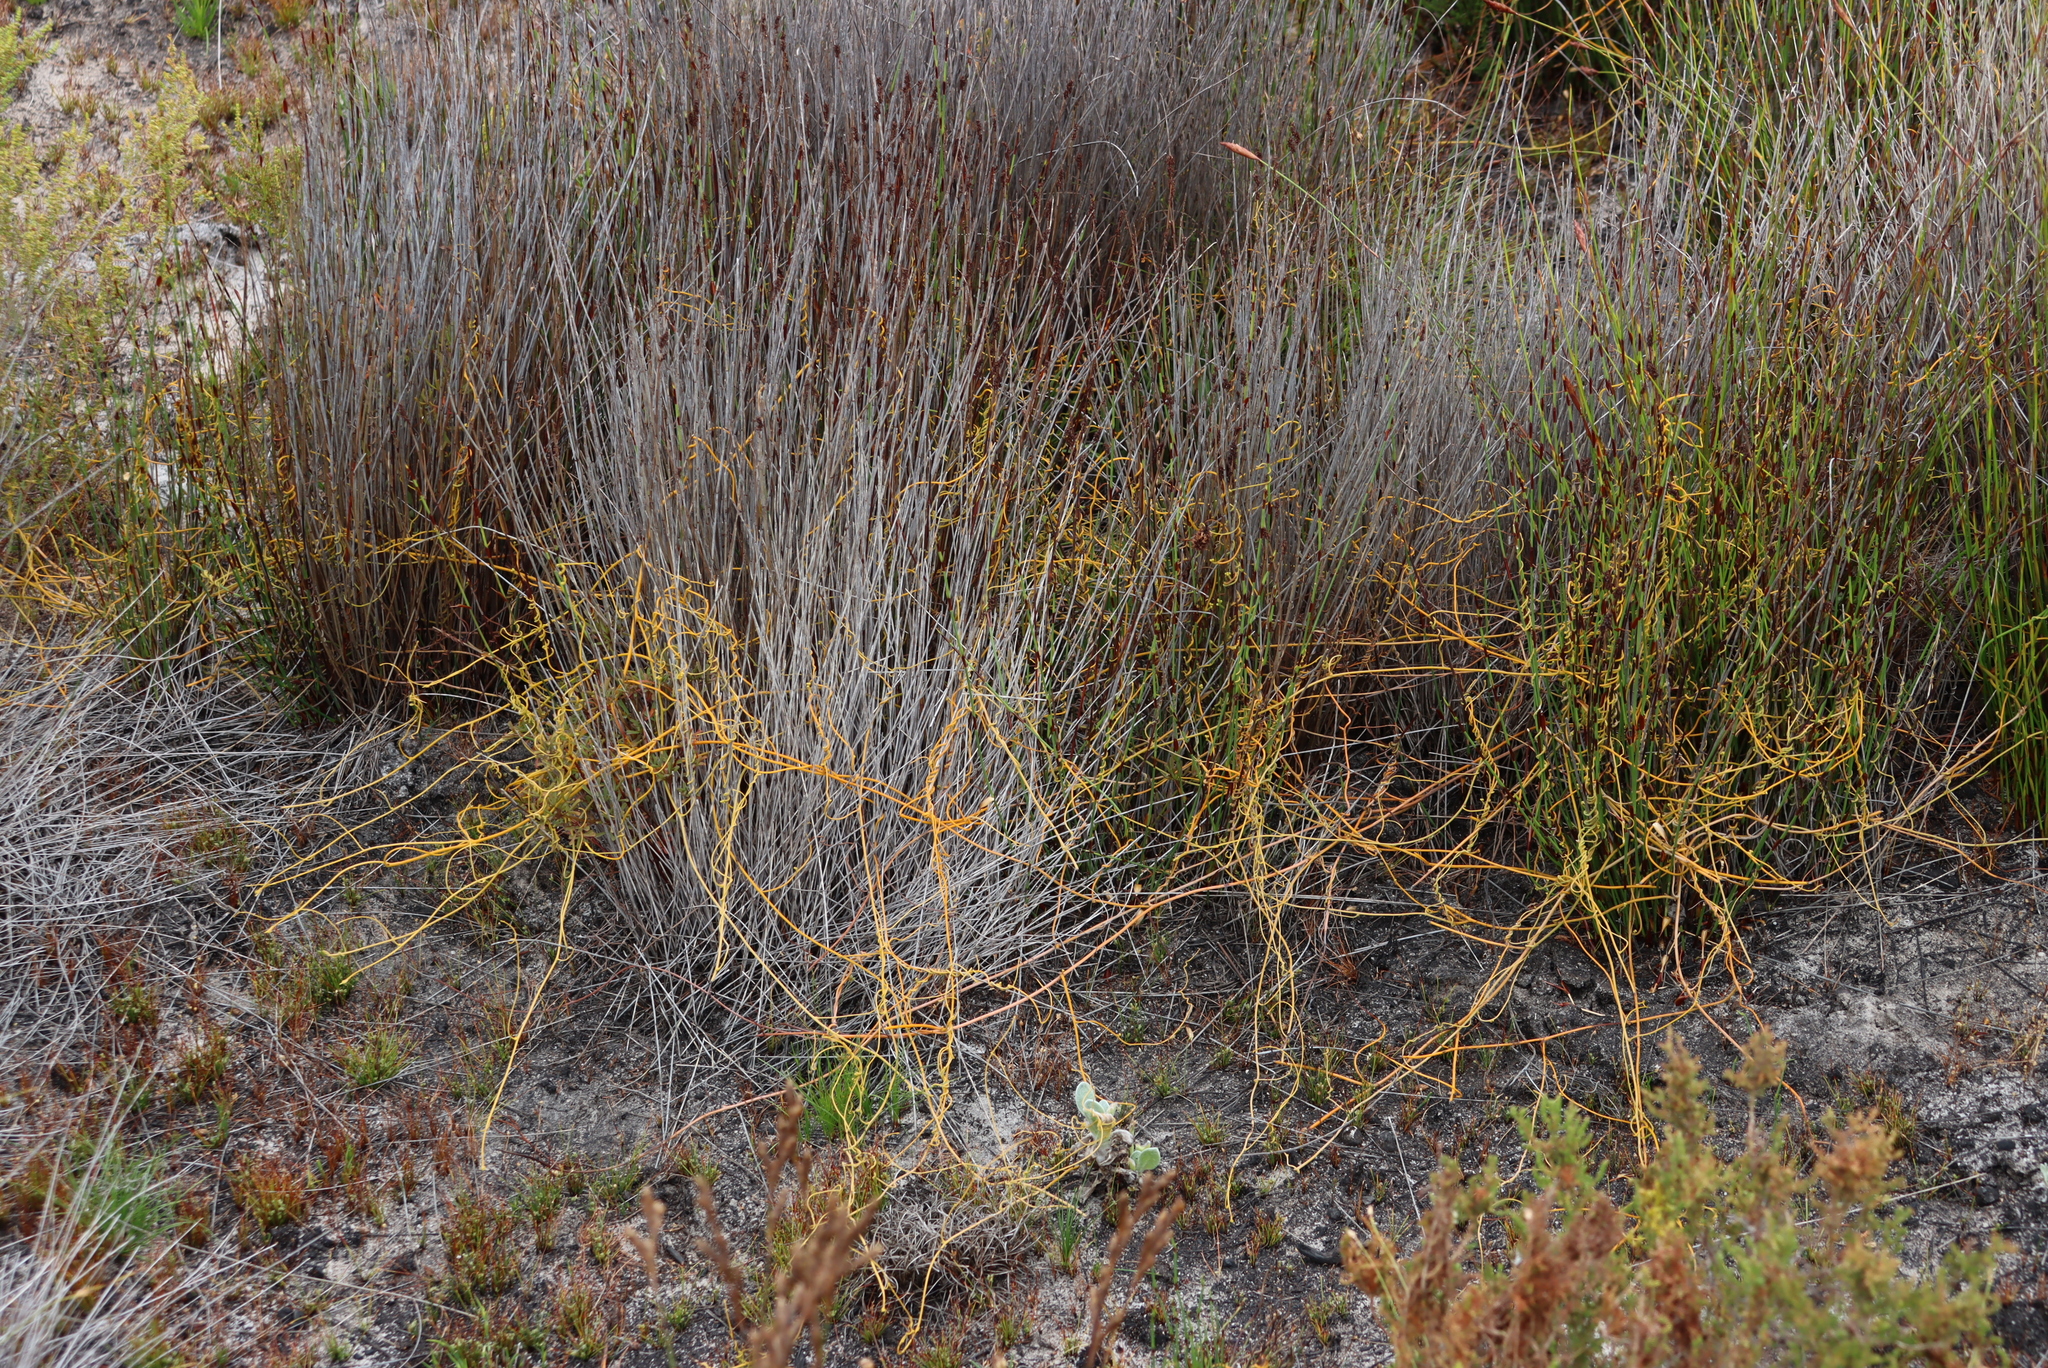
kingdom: Plantae
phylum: Tracheophyta
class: Magnoliopsida
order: Laurales
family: Lauraceae
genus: Cassytha
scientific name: Cassytha ciliolata
